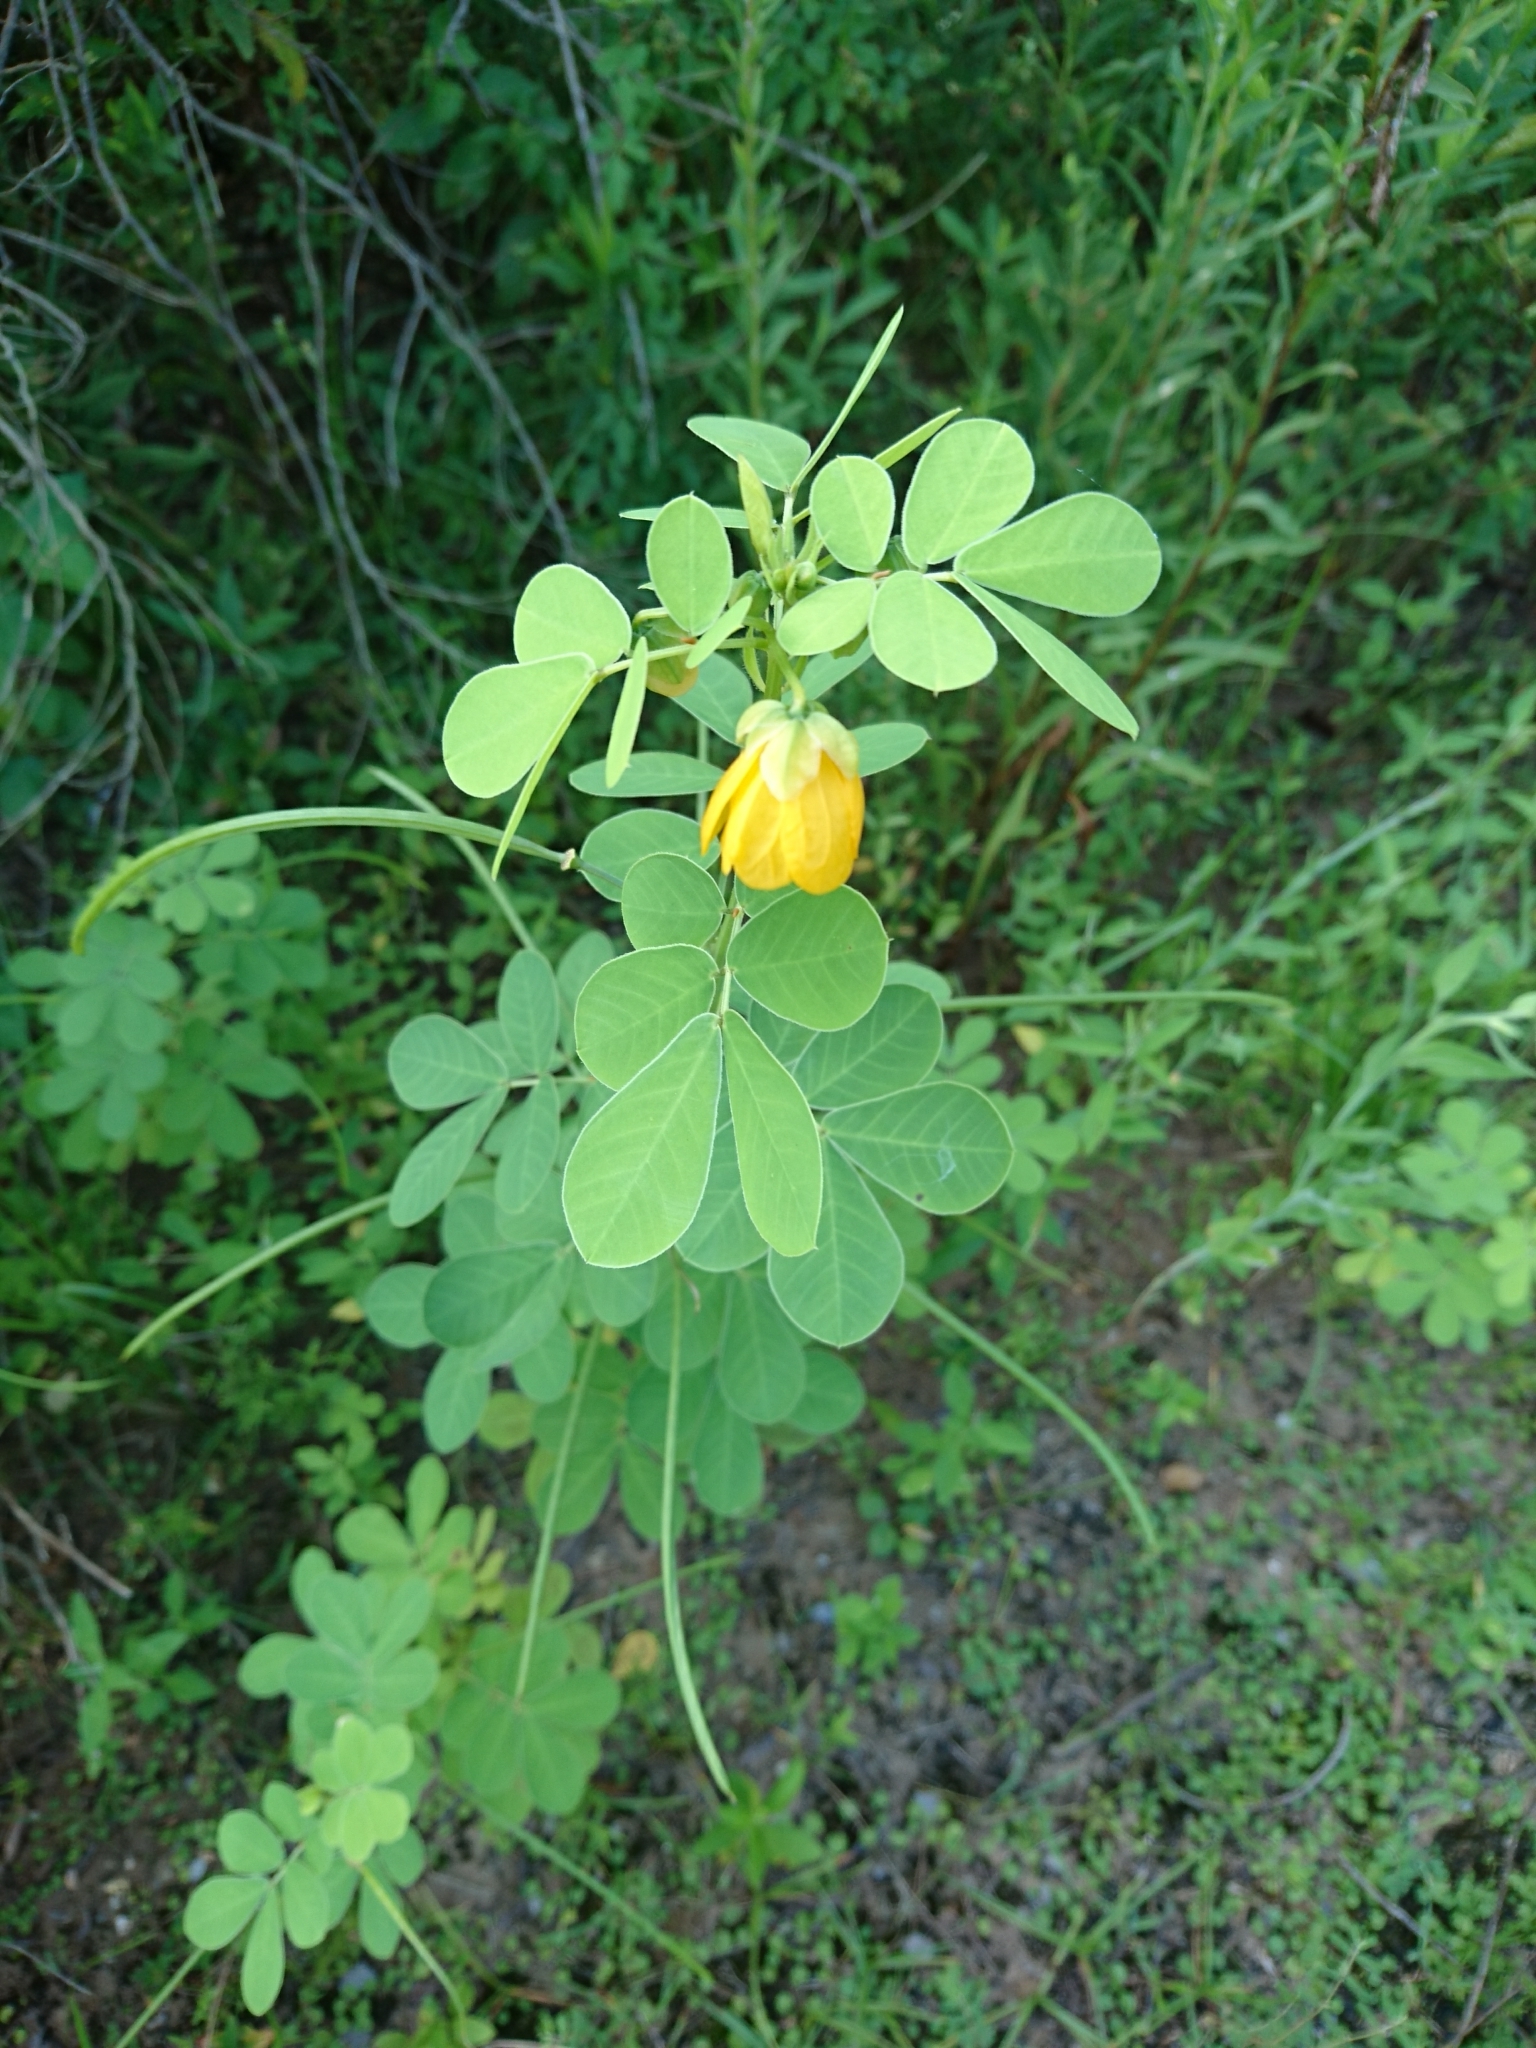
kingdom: Plantae
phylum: Tracheophyta
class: Magnoliopsida
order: Fabales
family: Fabaceae
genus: Senna
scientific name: Senna obtusifolia
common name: Java-bean
